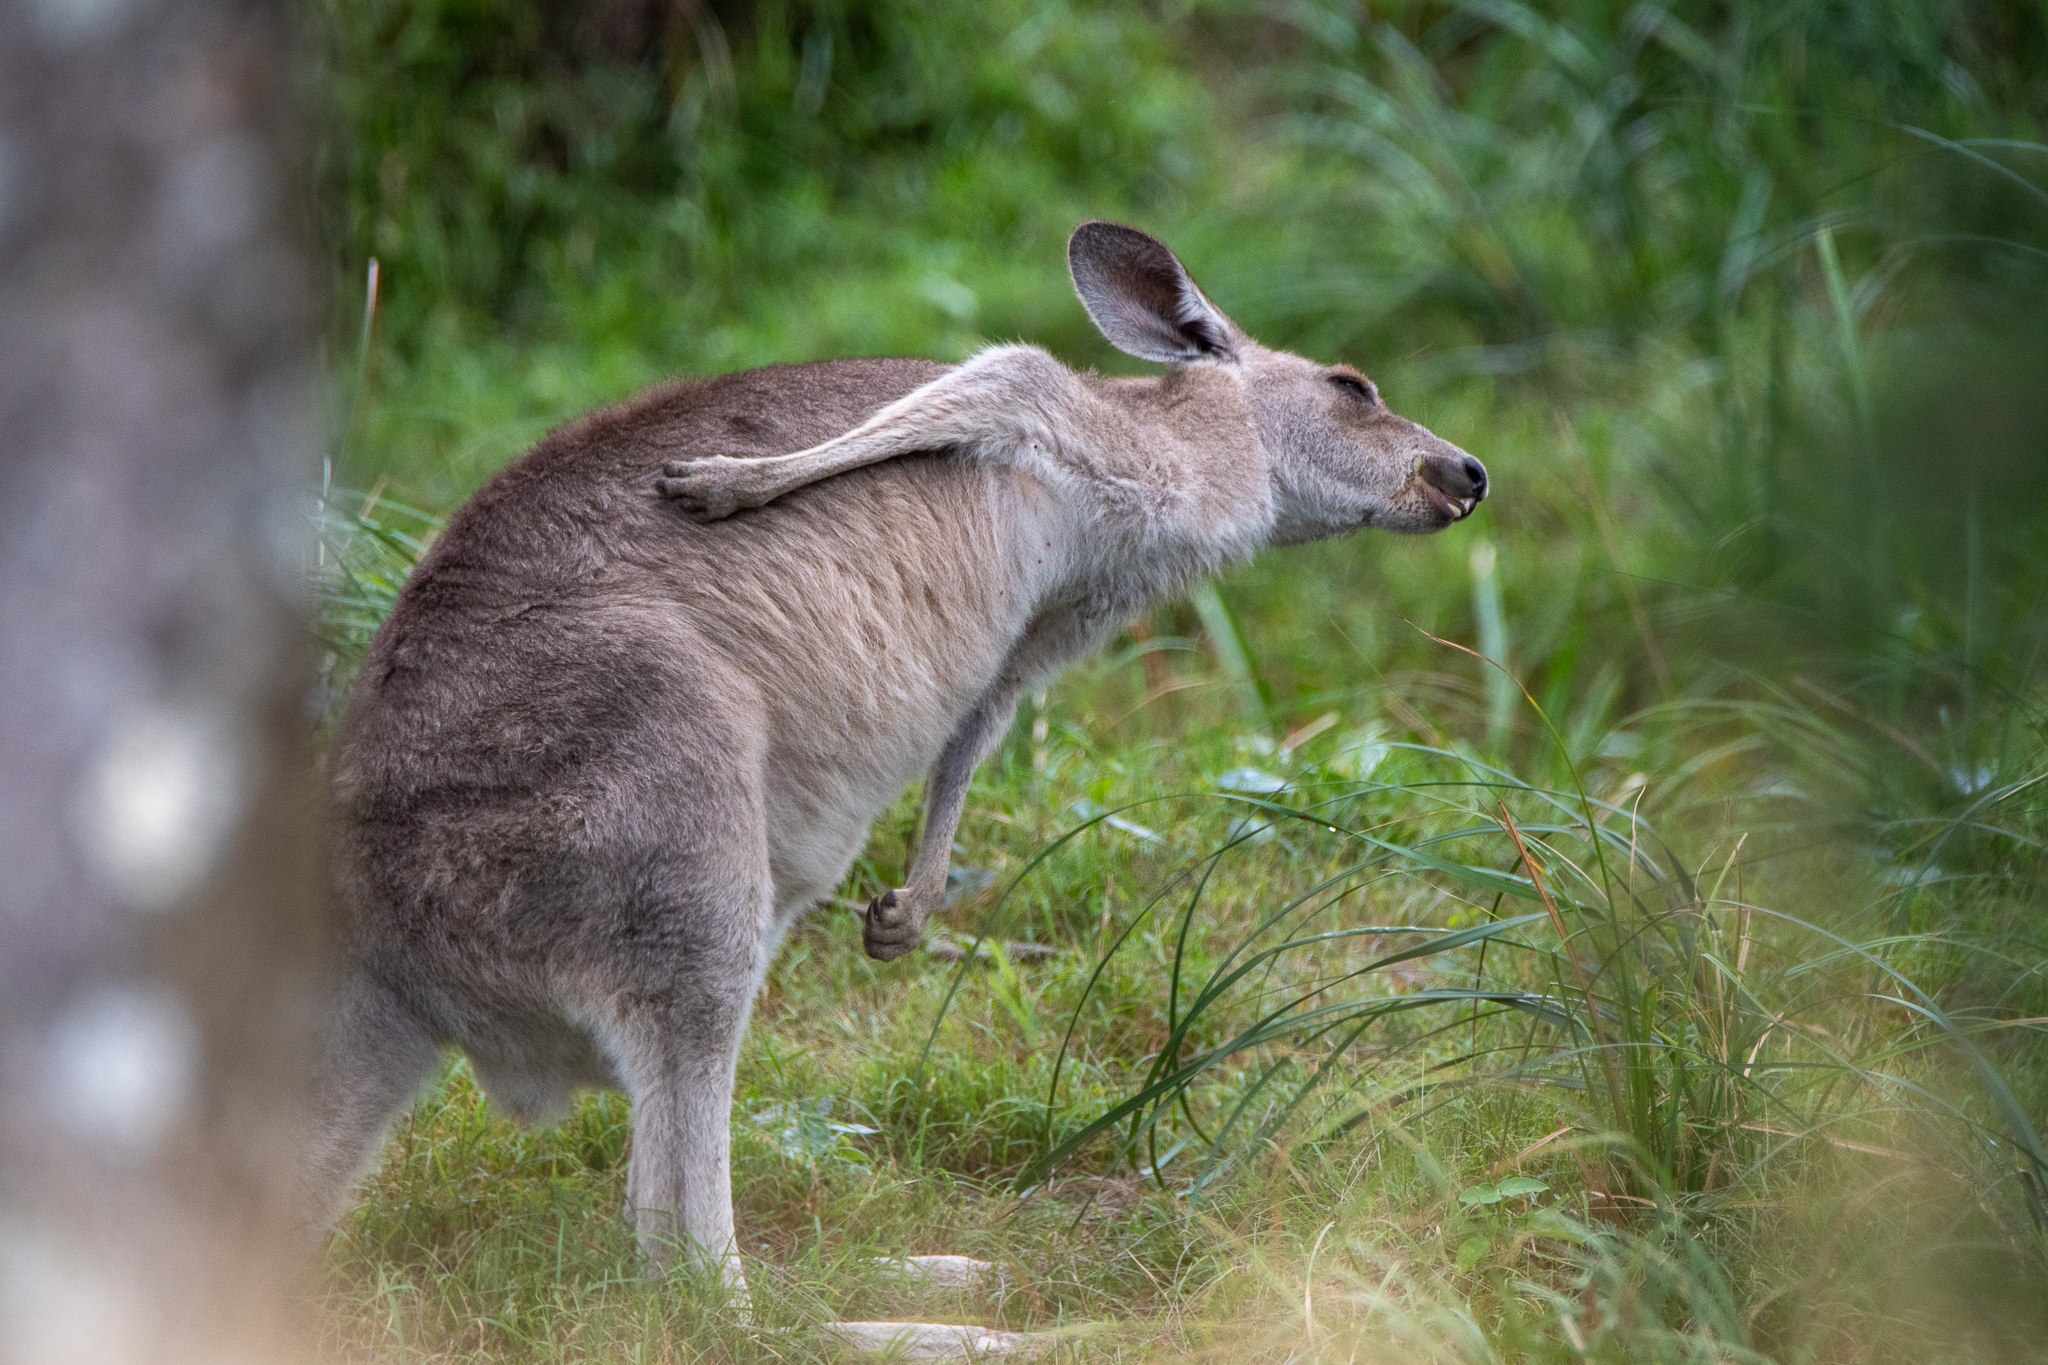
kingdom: Animalia
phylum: Chordata
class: Mammalia
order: Diprotodontia
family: Macropodidae
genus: Macropus
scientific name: Macropus giganteus
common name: Eastern grey kangaroo
